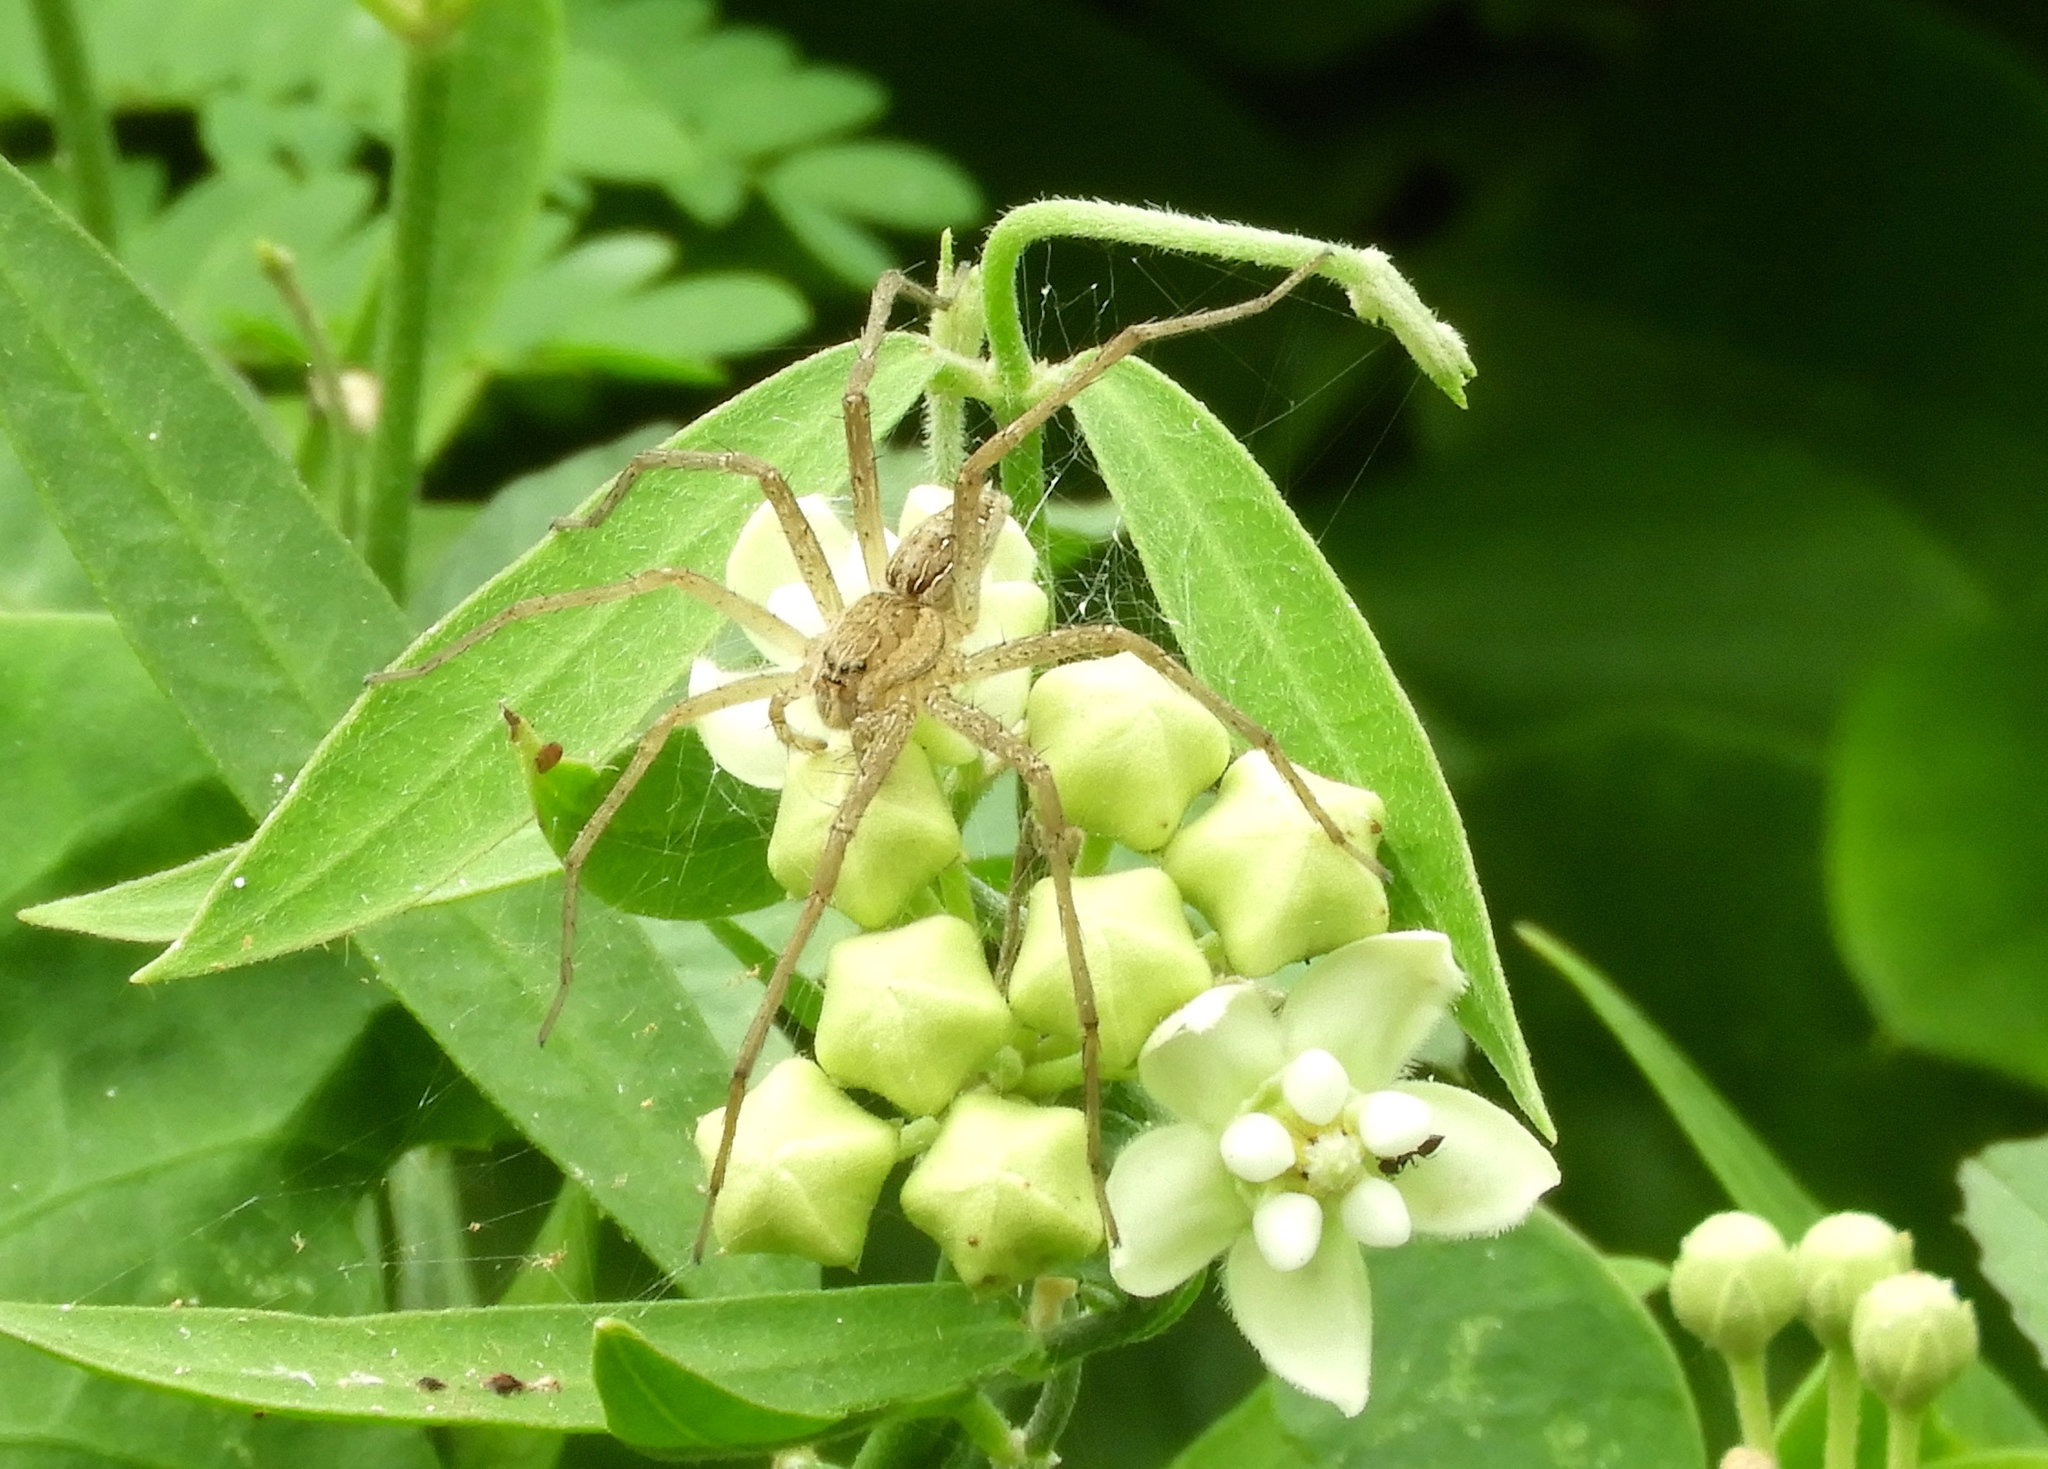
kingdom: Animalia
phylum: Arthropoda
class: Arachnida
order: Araneae
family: Pisauridae
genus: Tinus
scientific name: Tinus
